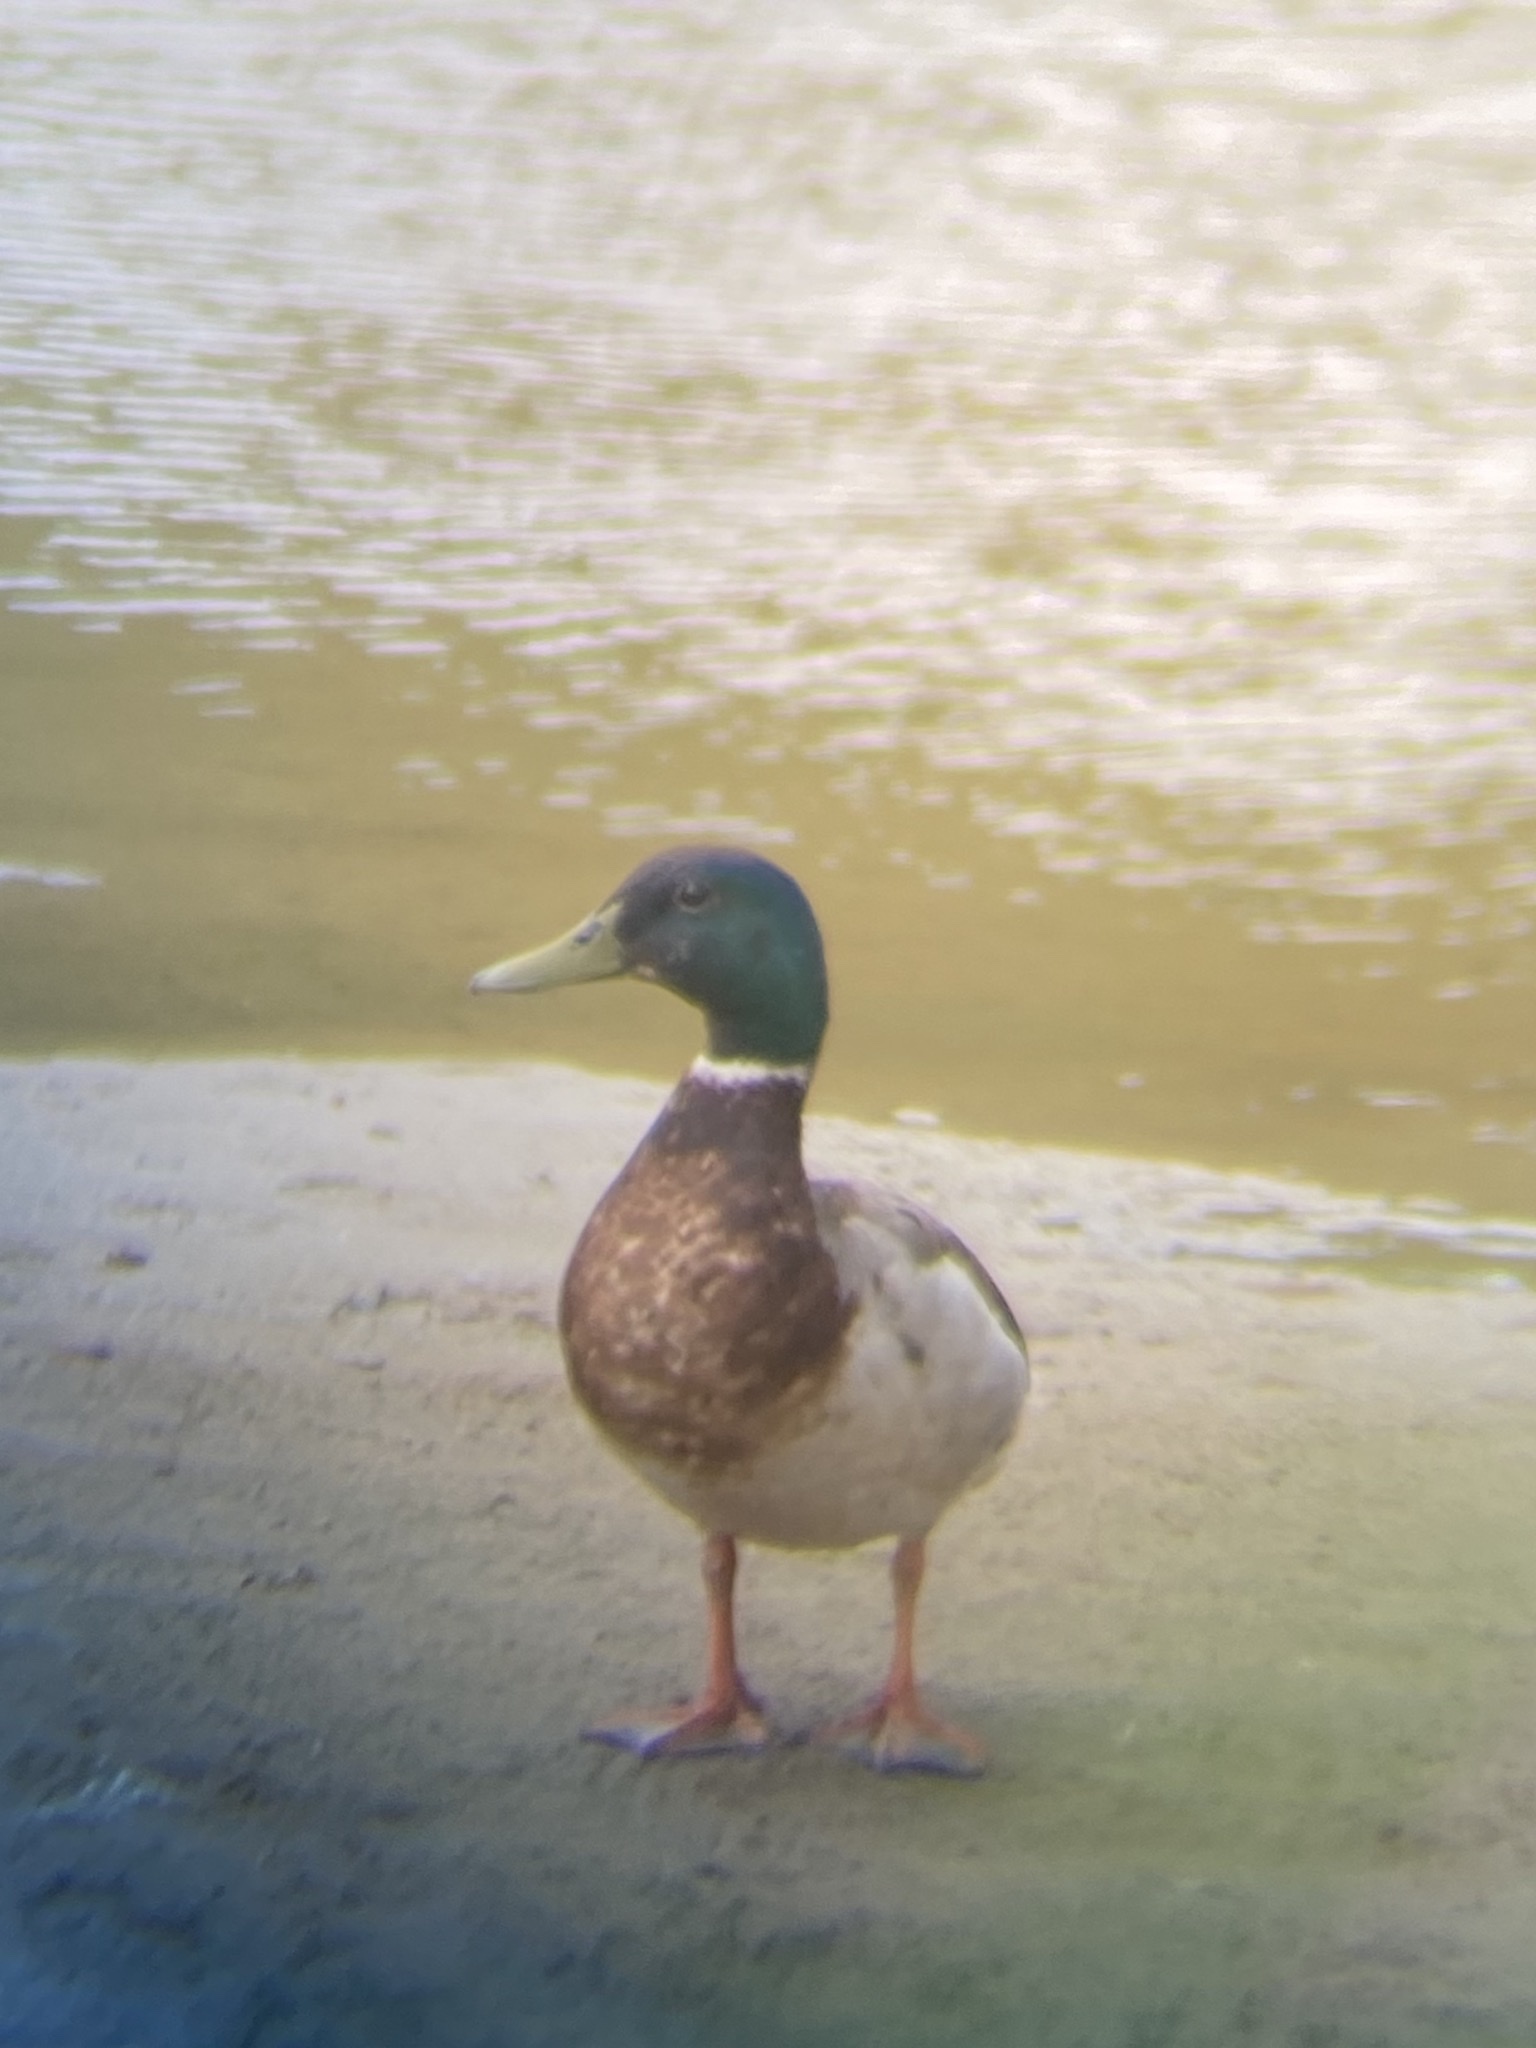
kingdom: Animalia
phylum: Chordata
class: Aves
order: Anseriformes
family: Anatidae
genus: Anas
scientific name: Anas platyrhynchos
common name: Mallard
